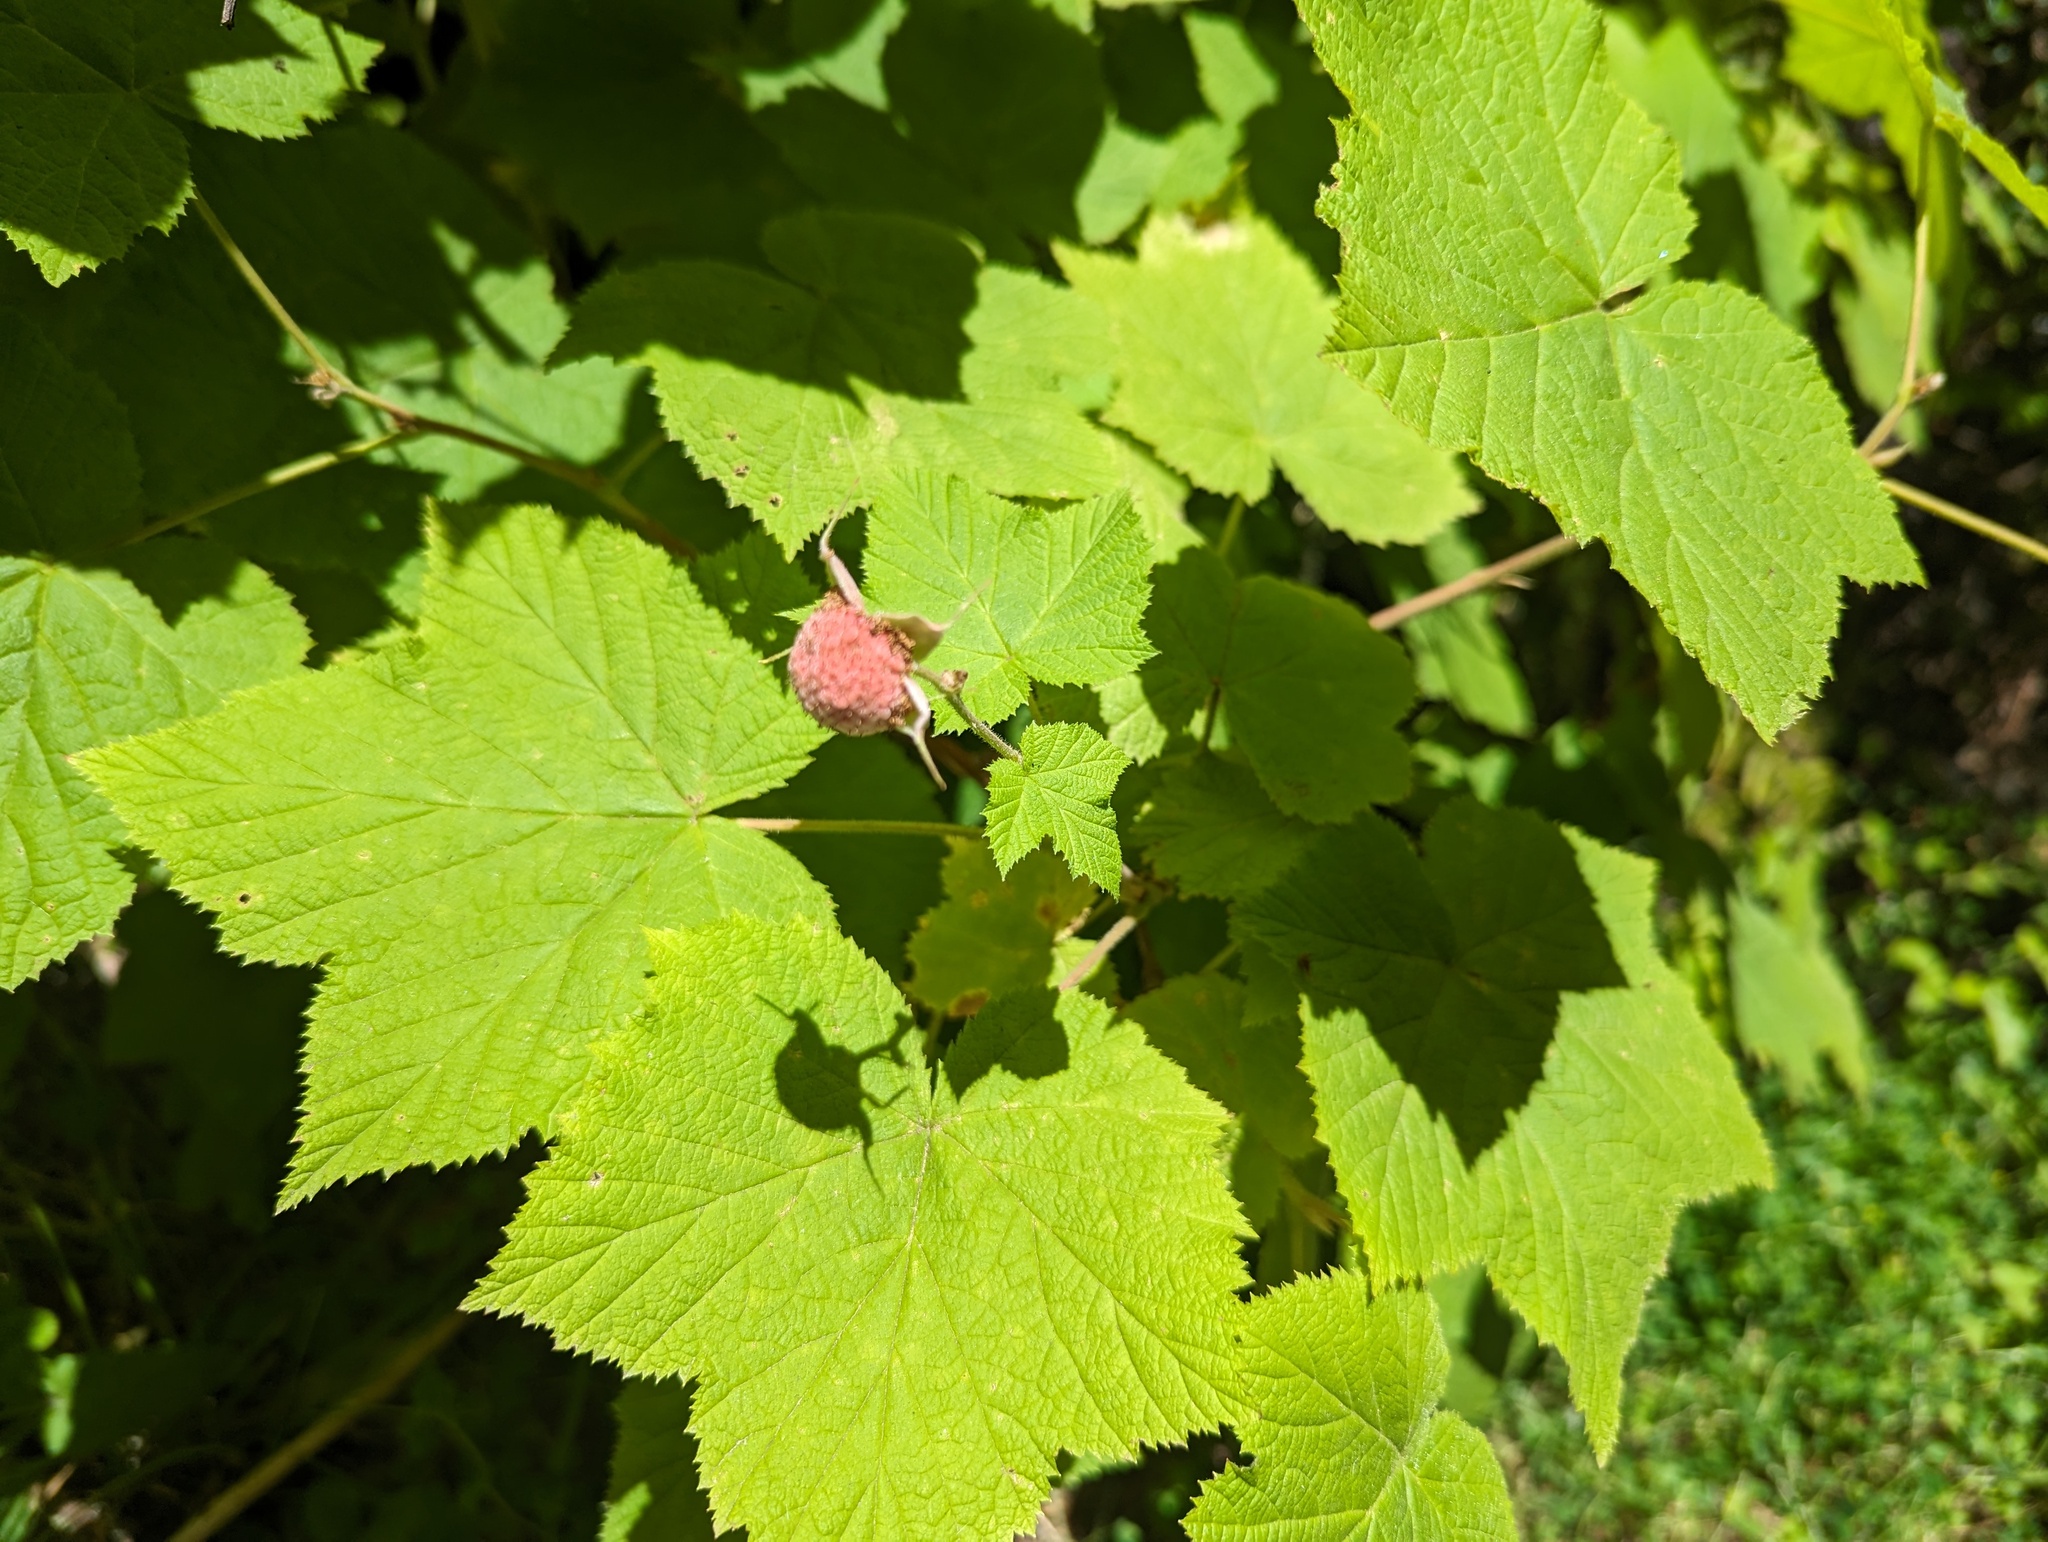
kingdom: Plantae
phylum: Tracheophyta
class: Magnoliopsida
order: Rosales
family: Rosaceae
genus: Rubus
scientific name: Rubus parviflorus
